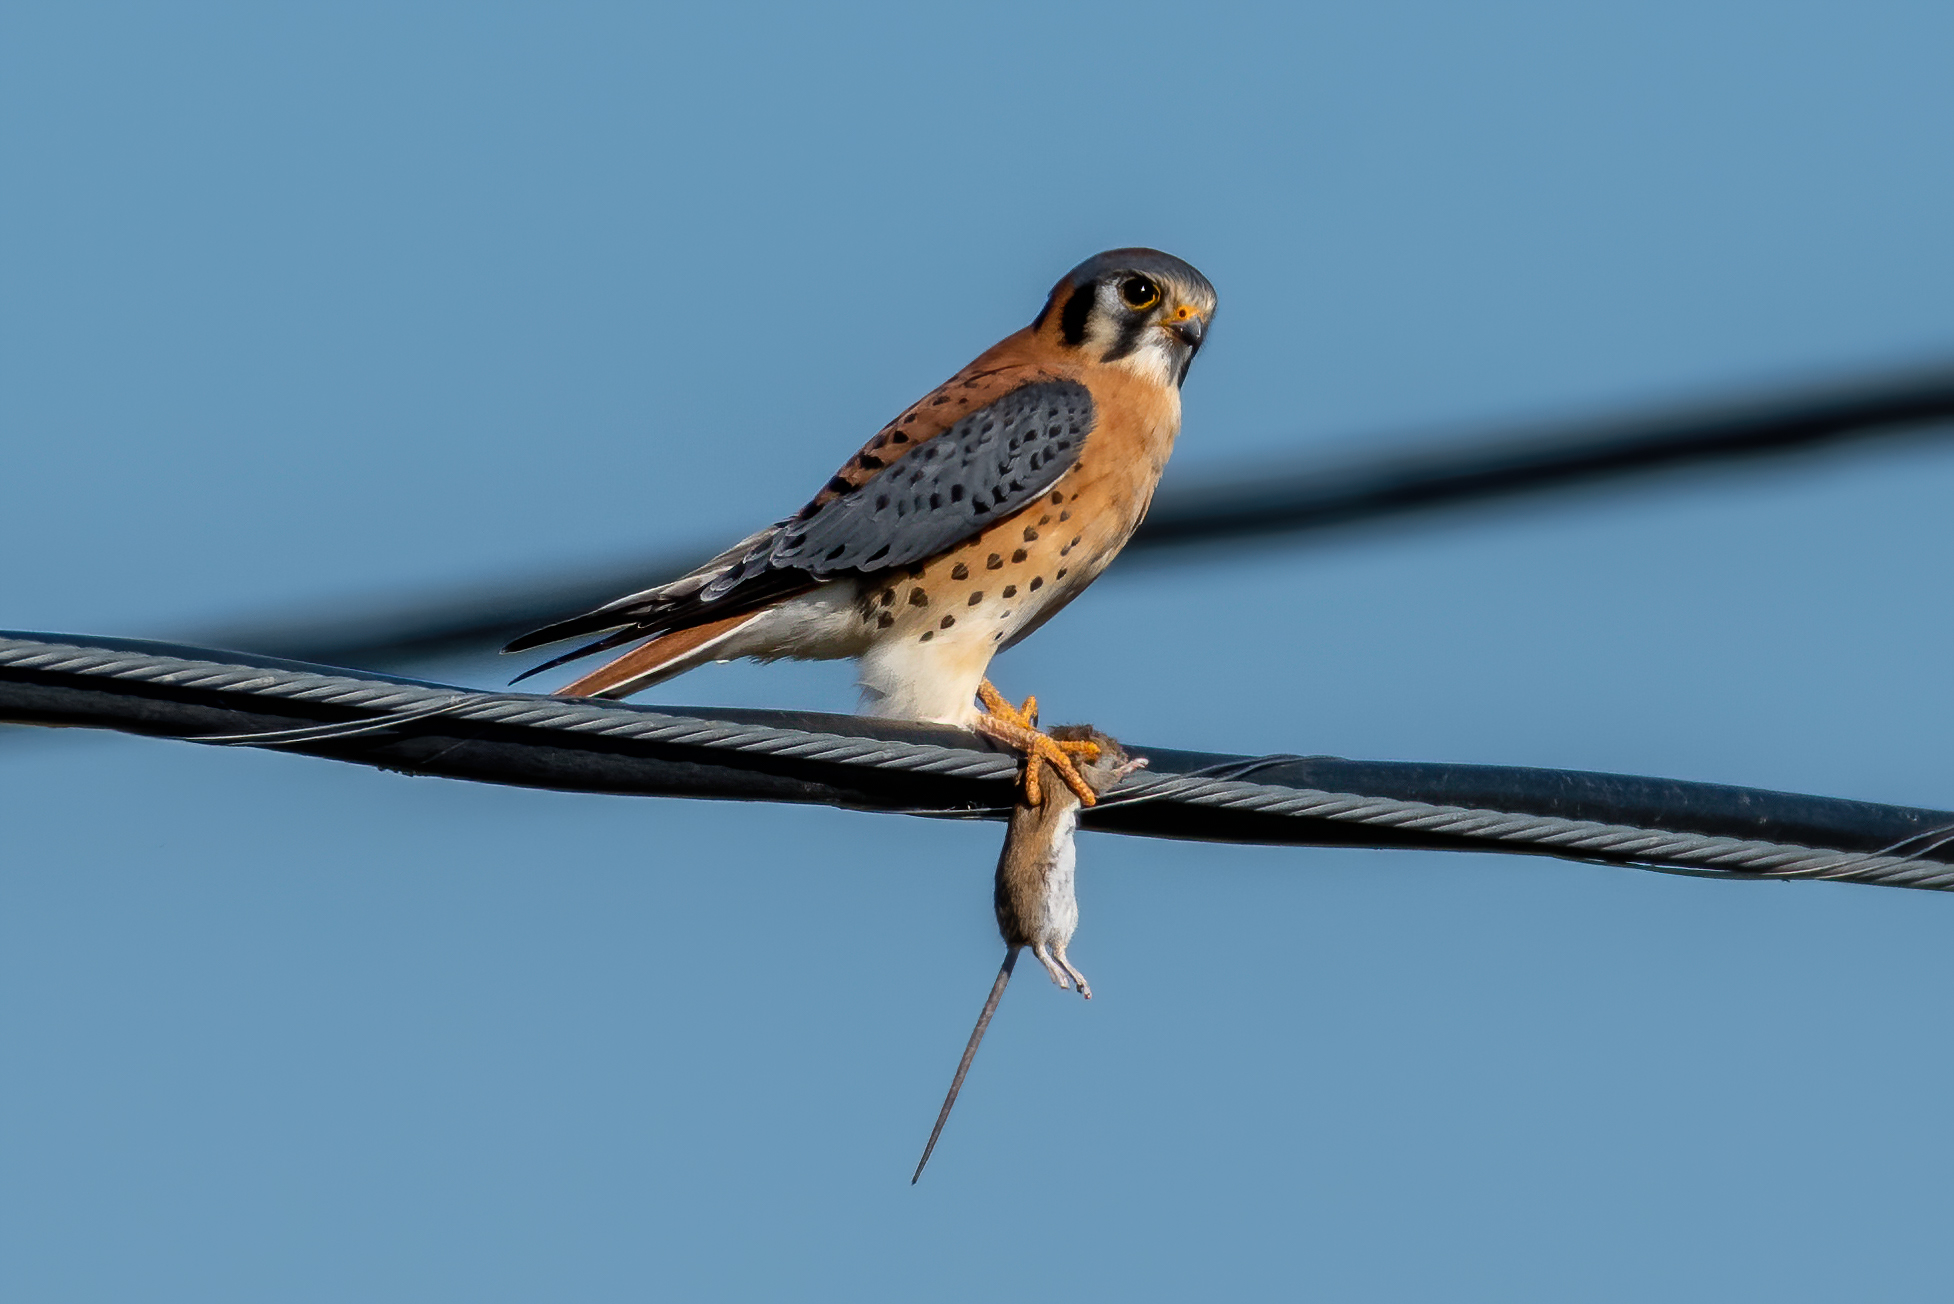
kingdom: Animalia
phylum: Chordata
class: Aves
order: Falconiformes
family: Falconidae
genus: Falco
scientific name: Falco sparverius
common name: American kestrel
